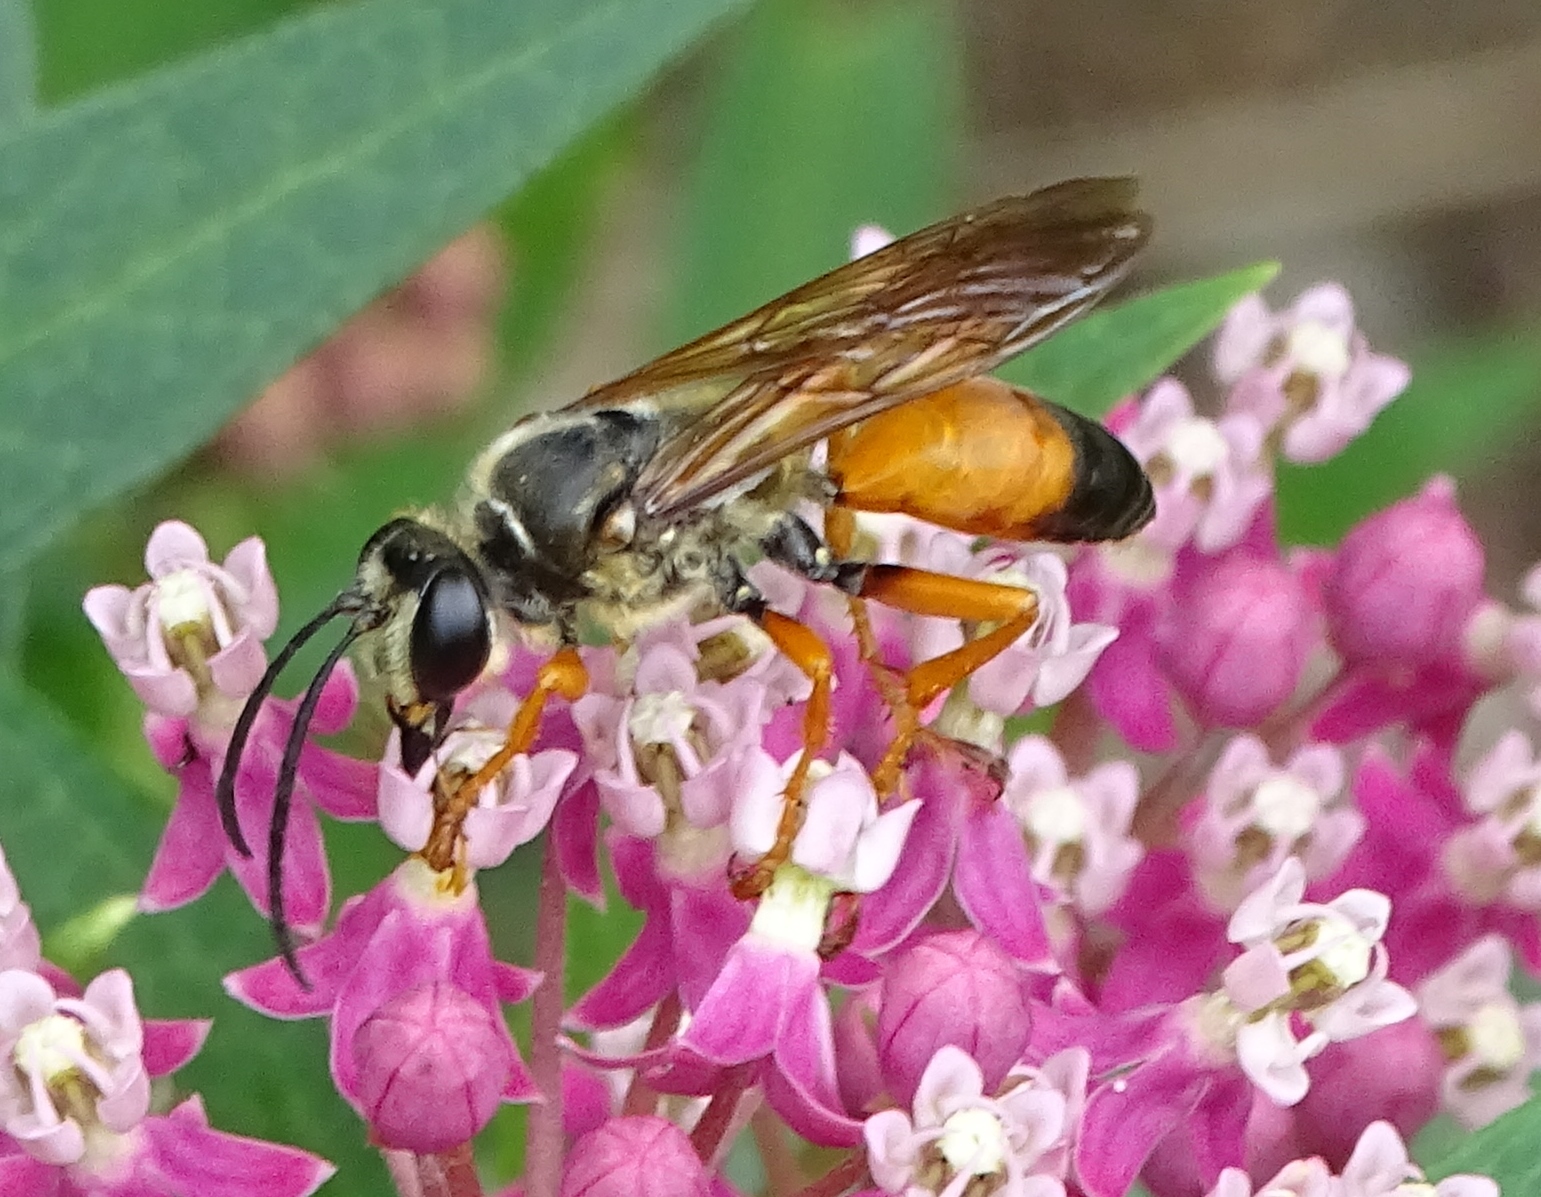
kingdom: Animalia
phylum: Arthropoda
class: Insecta
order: Hymenoptera
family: Sphecidae
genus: Sphex
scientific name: Sphex ichneumoneus
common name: Great golden digger wasp
